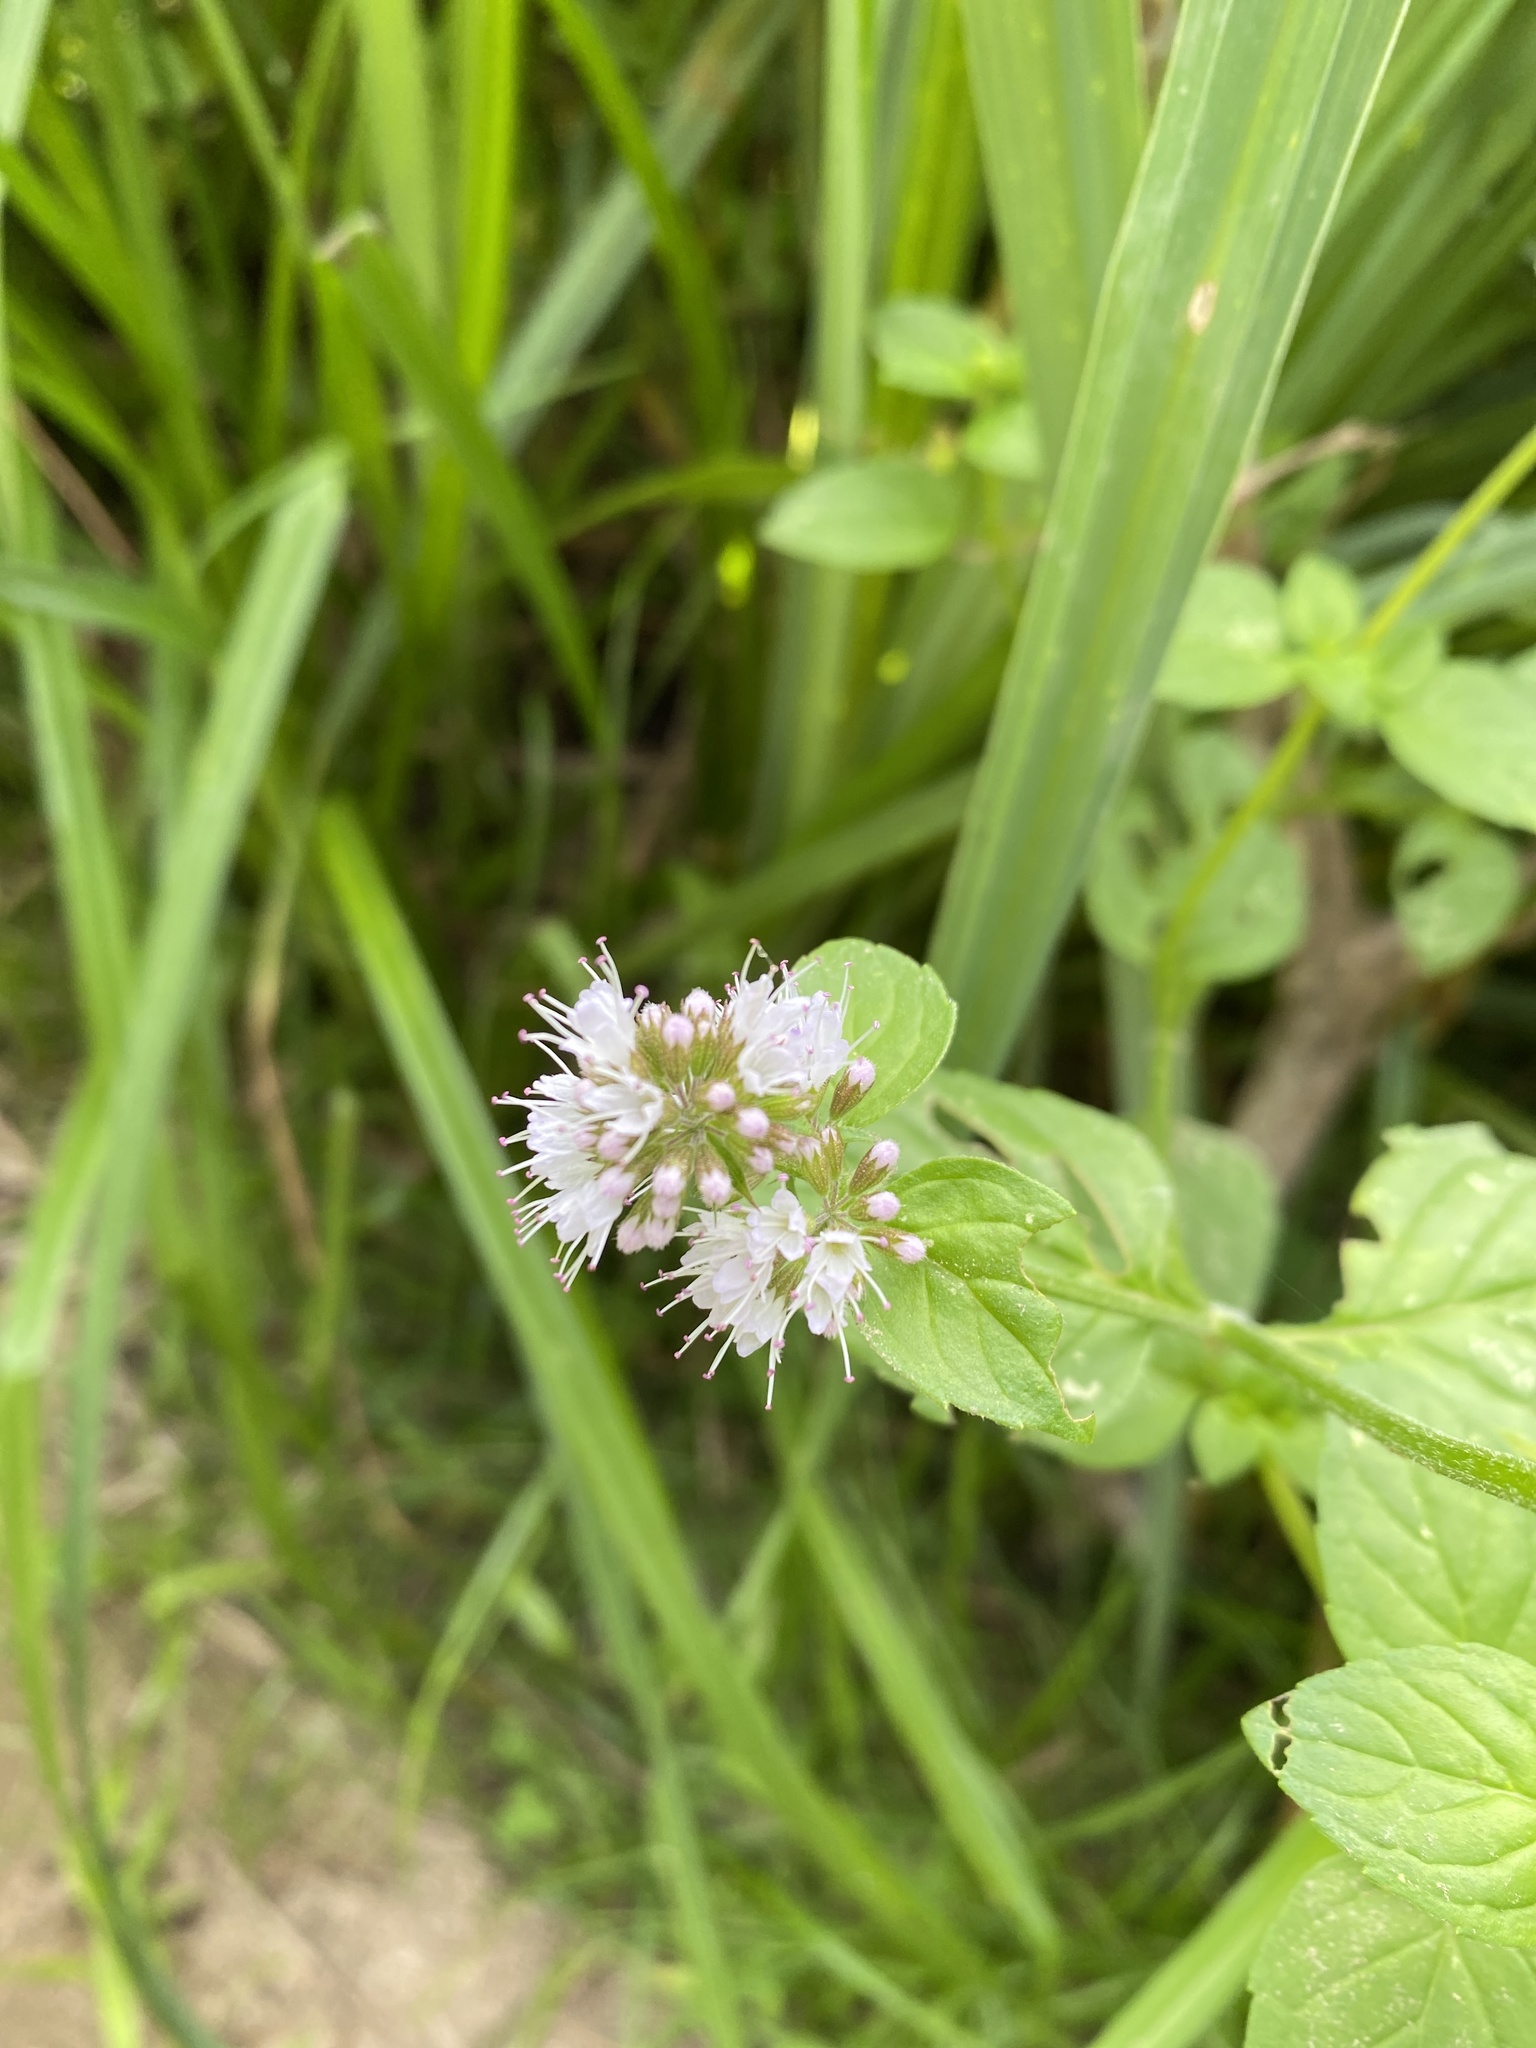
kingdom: Plantae
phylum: Tracheophyta
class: Magnoliopsida
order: Lamiales
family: Lamiaceae
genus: Mentha
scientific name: Mentha aquatica
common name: Water mint
